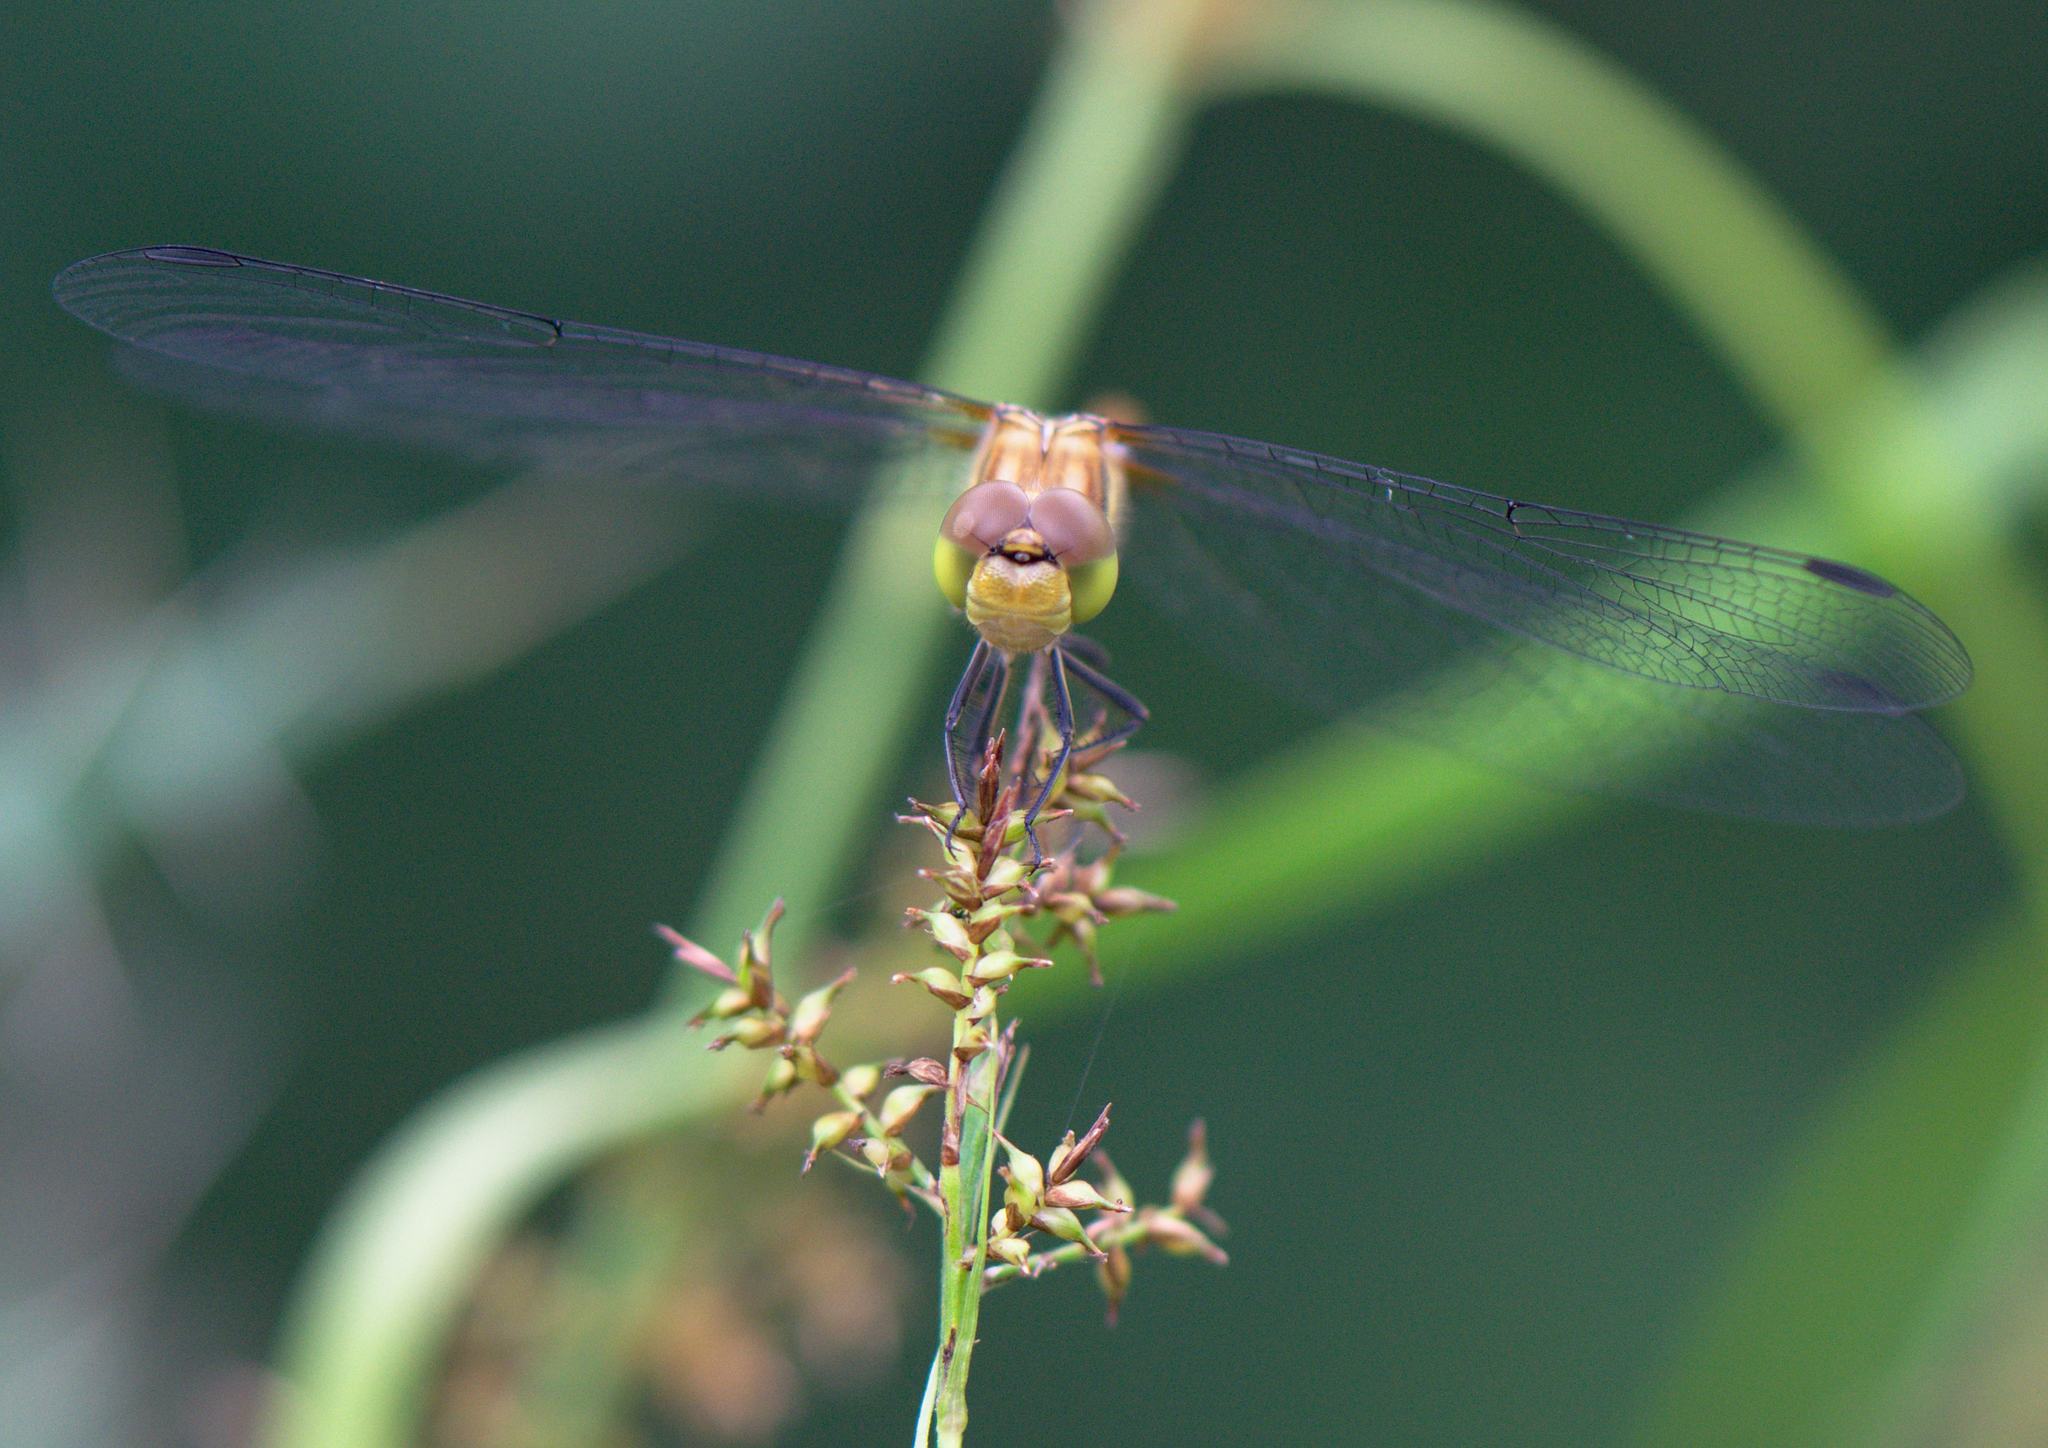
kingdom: Animalia
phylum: Arthropoda
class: Insecta
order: Odonata
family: Libellulidae
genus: Sympetrum
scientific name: Sympetrum striolatum
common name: Common darter
